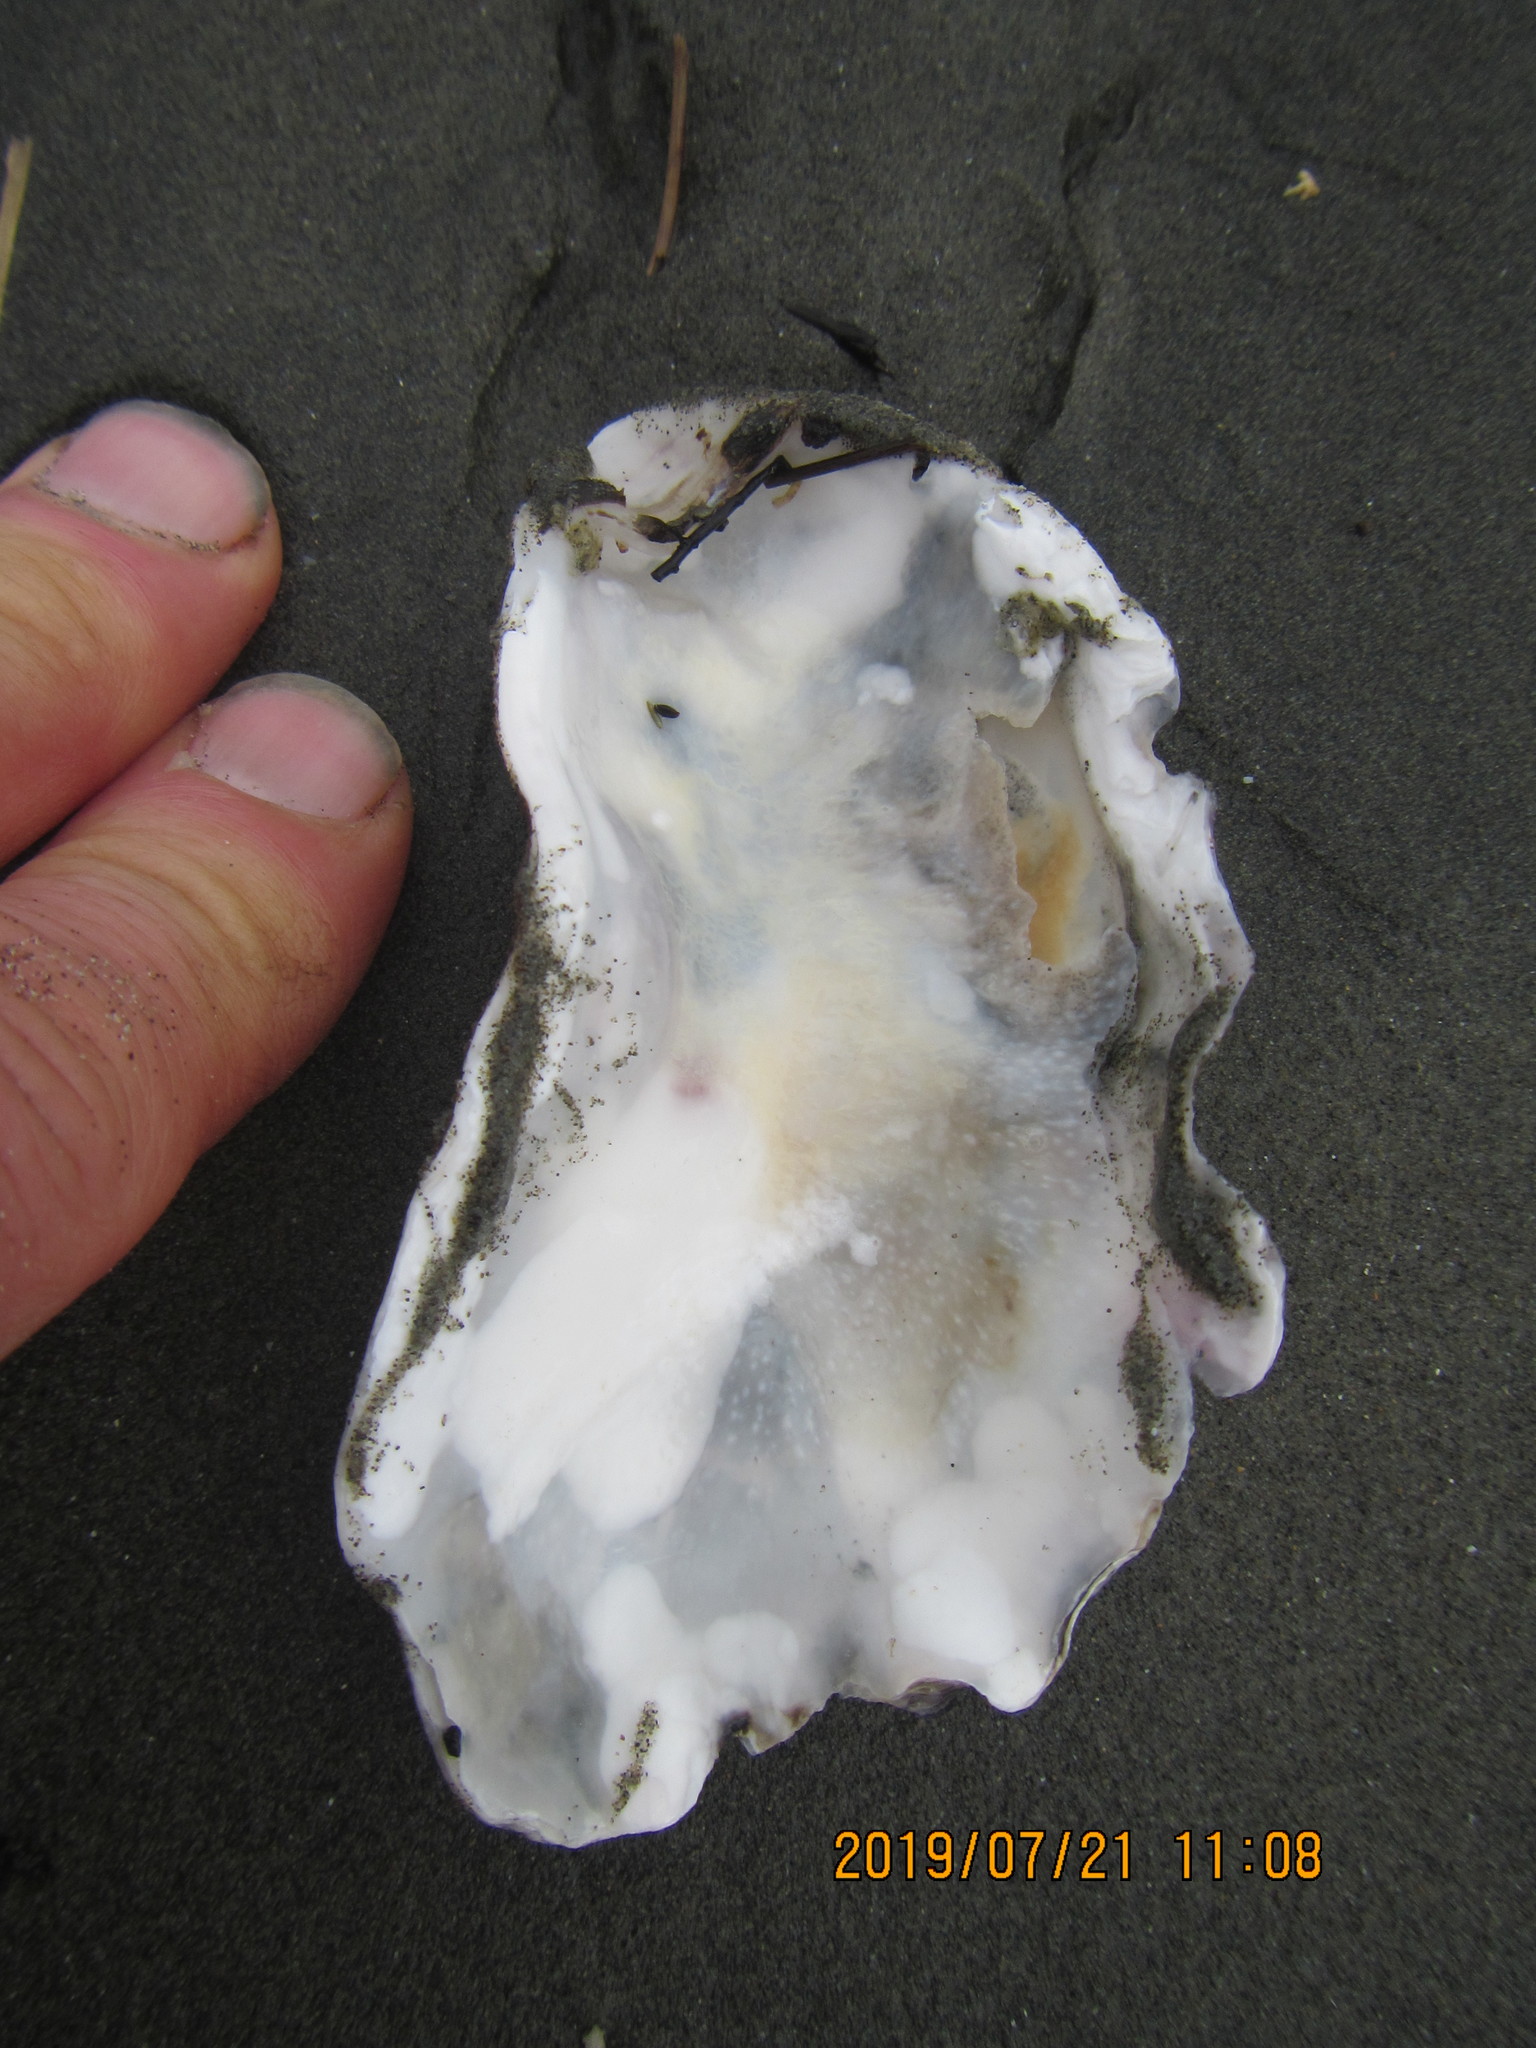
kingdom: Animalia
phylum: Mollusca
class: Bivalvia
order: Ostreida
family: Ostreidae
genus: Magallana
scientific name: Magallana gigas
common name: Pacific oyster
